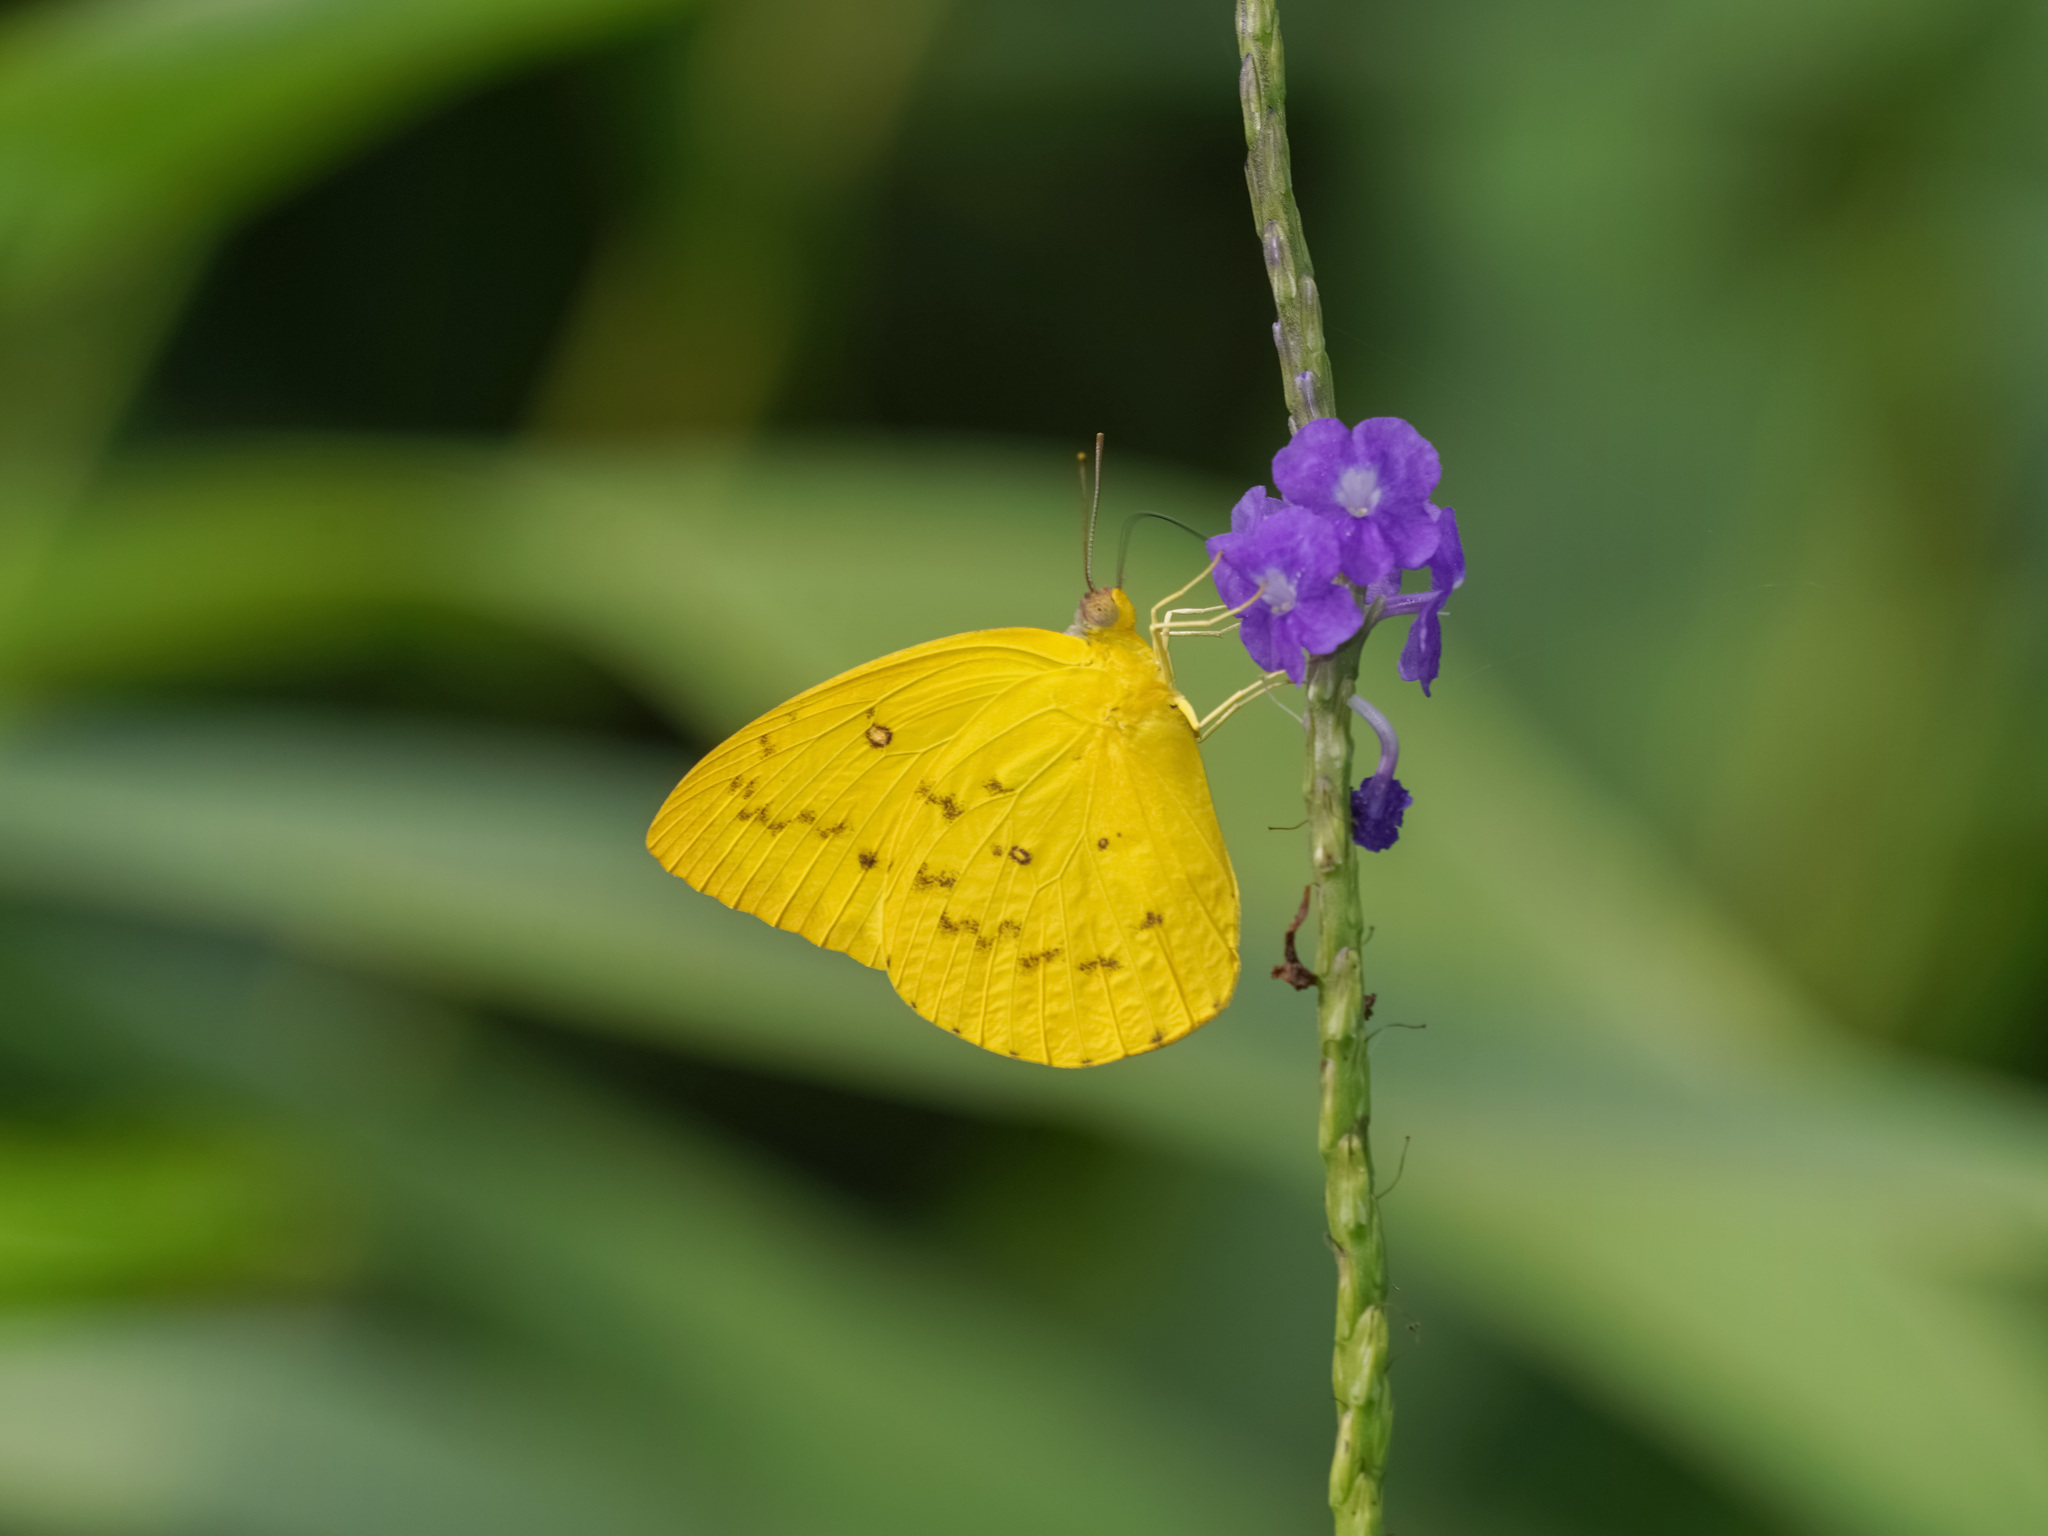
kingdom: Animalia
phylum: Arthropoda
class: Insecta
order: Lepidoptera
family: Pieridae
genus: Catopsilia
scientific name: Catopsilia scylla
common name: Orange emigrant
